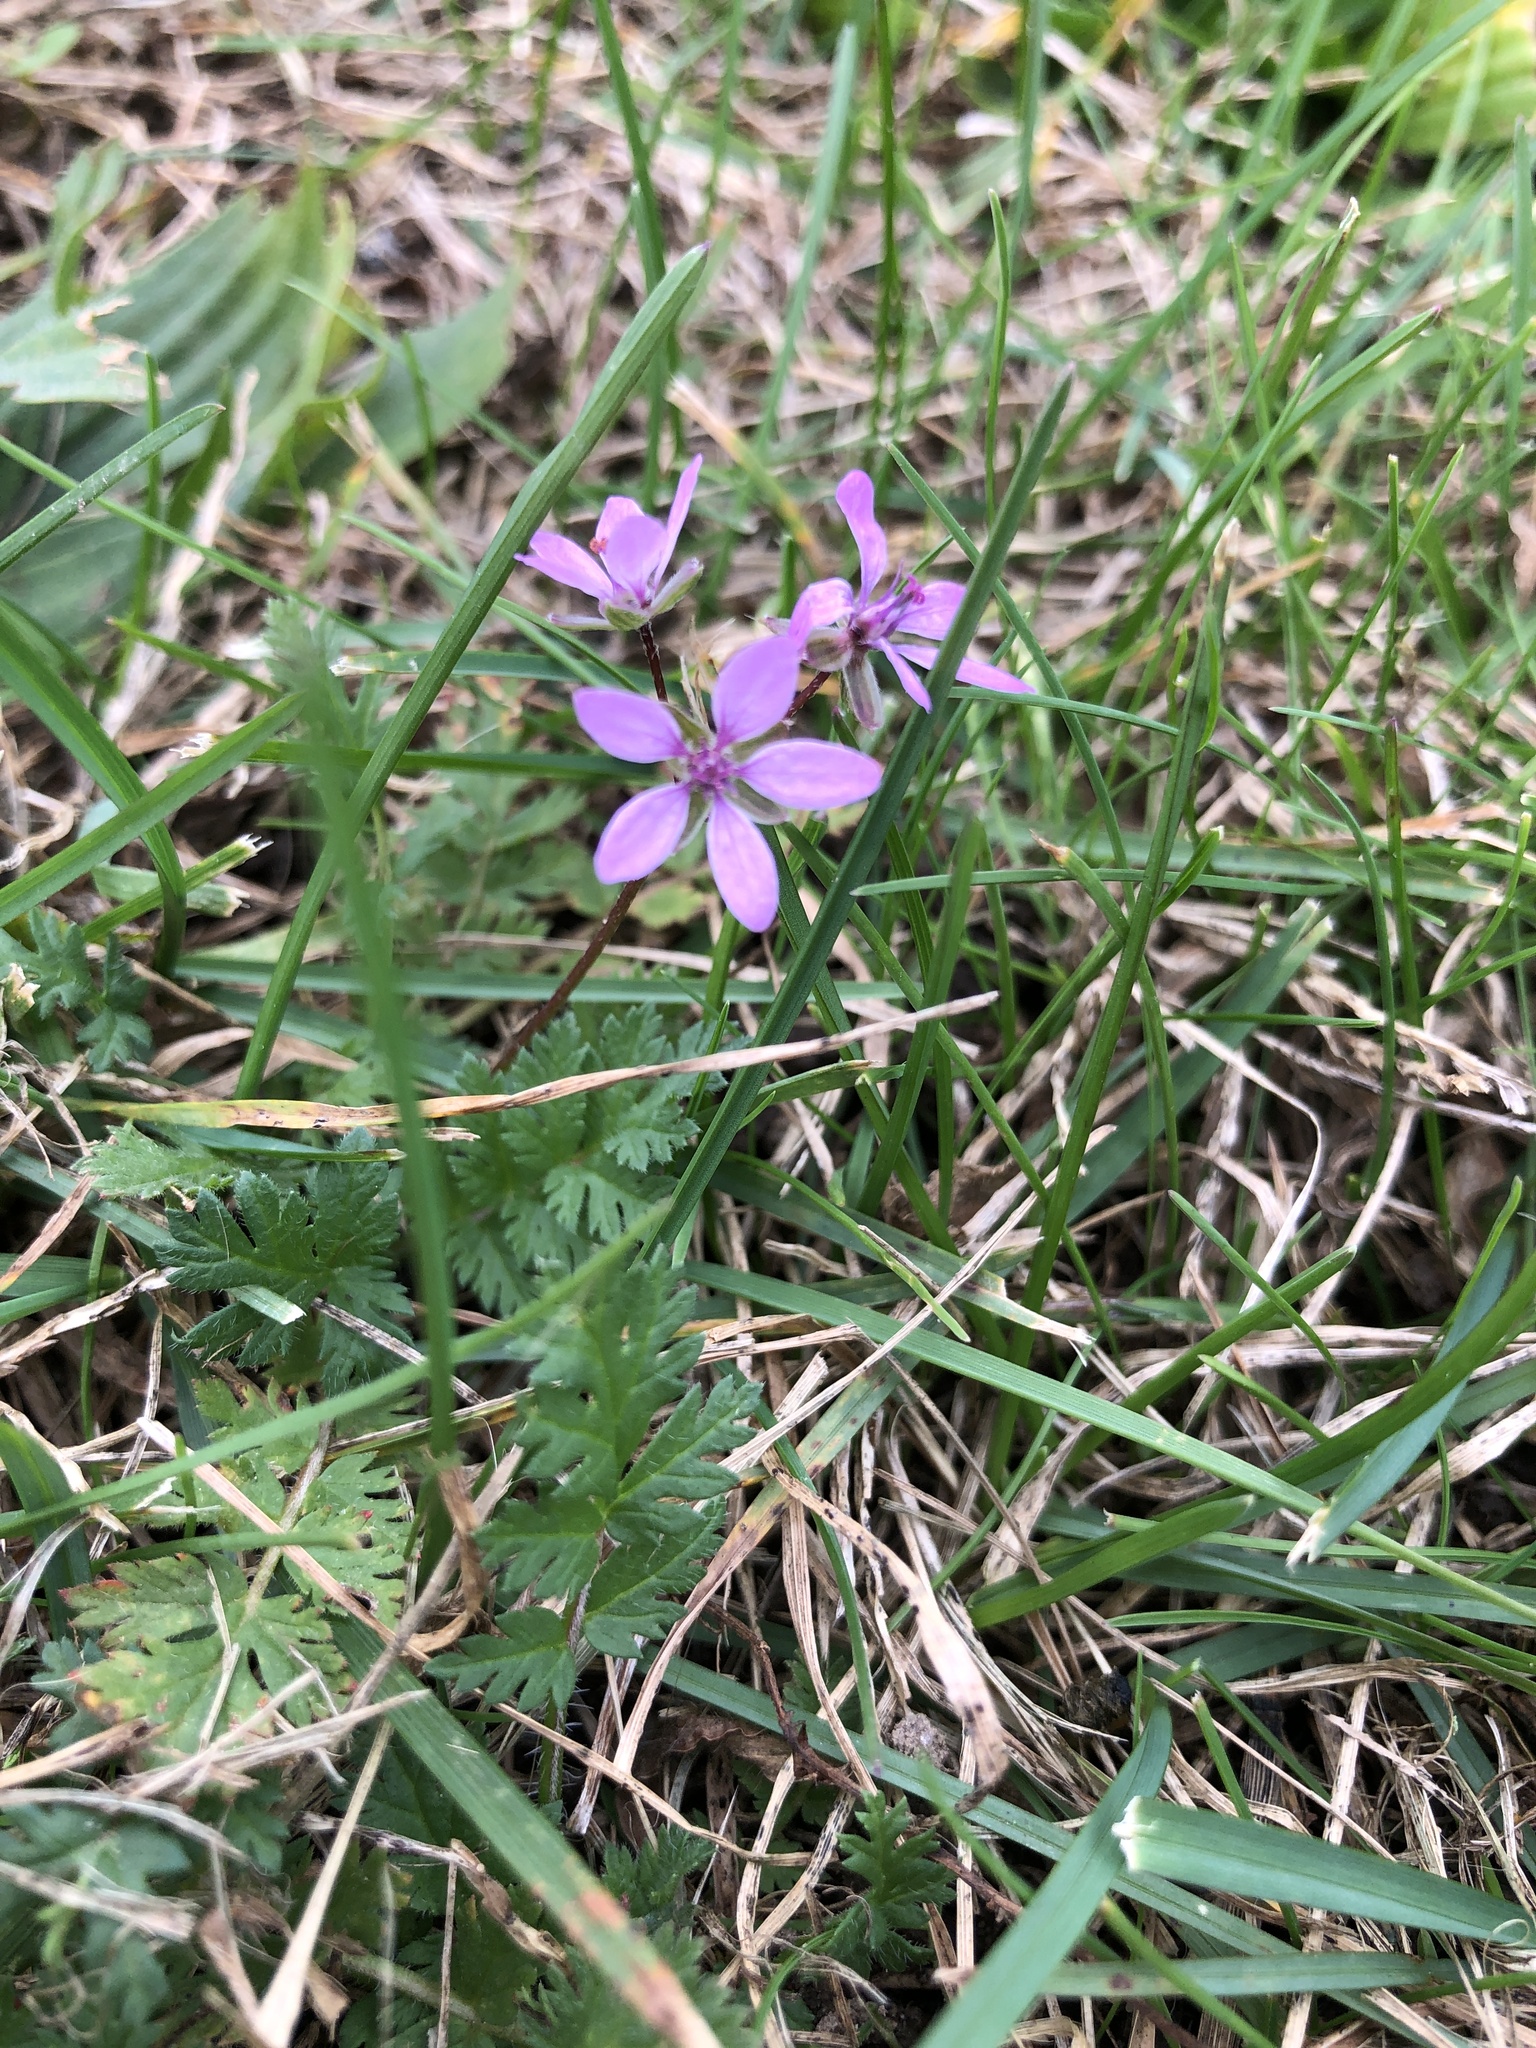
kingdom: Plantae
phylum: Tracheophyta
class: Magnoliopsida
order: Geraniales
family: Geraniaceae
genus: Erodium
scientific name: Erodium cicutarium
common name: Common stork's-bill
